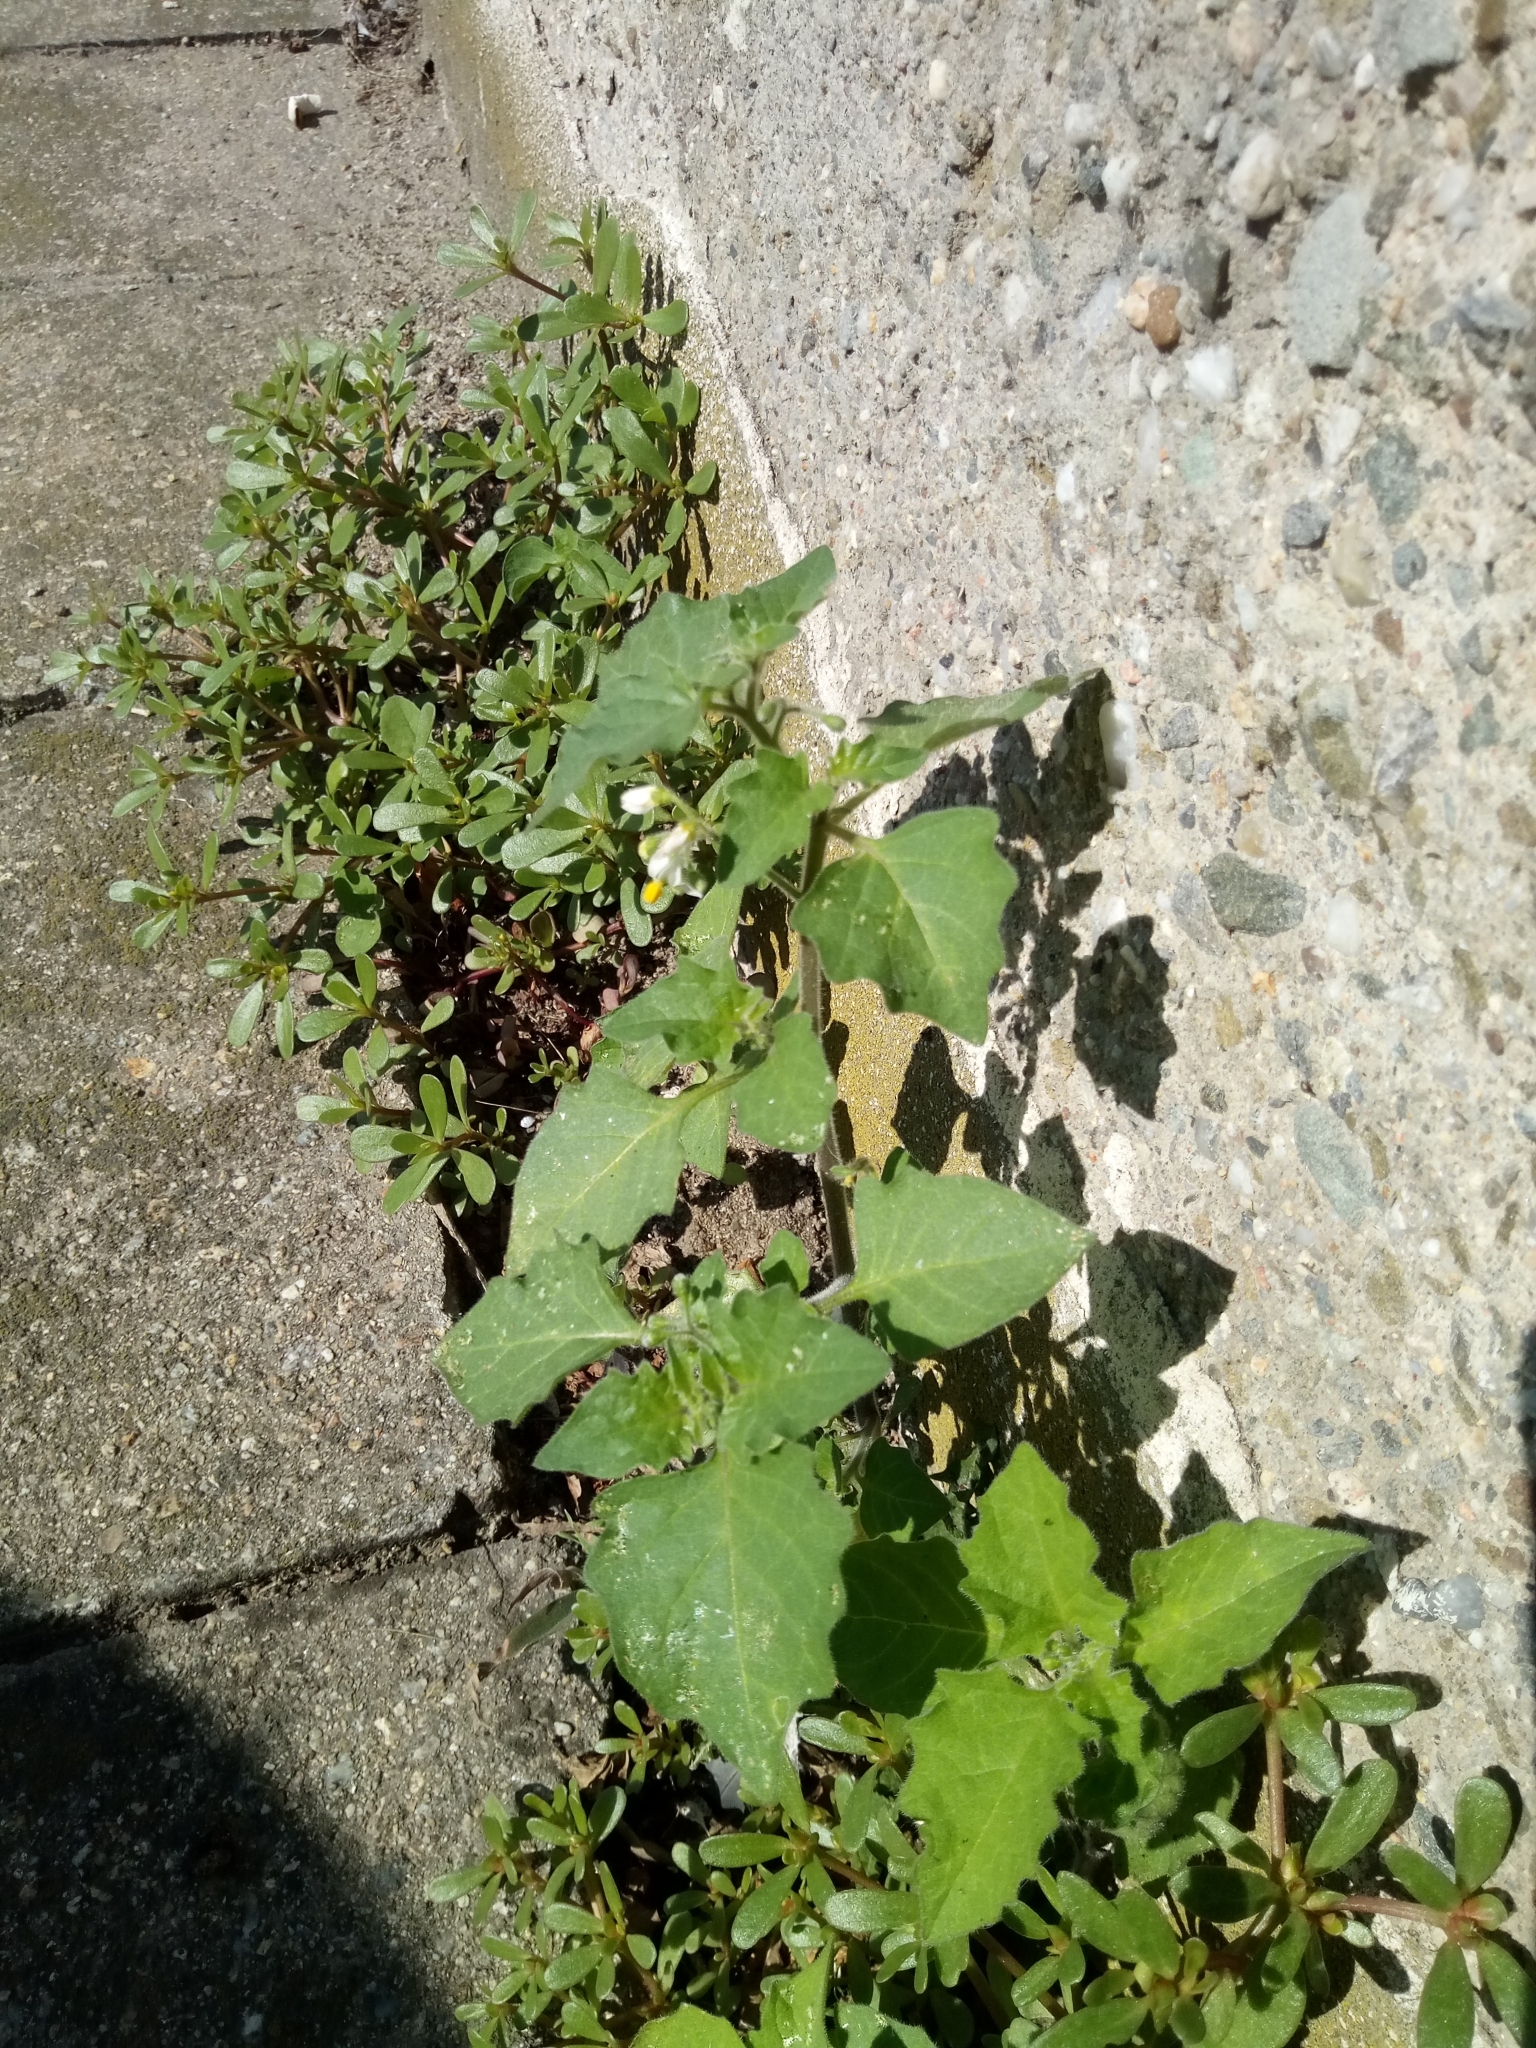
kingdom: Plantae
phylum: Tracheophyta
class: Magnoliopsida
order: Solanales
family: Solanaceae
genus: Solanum
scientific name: Solanum nigrum
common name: Black nightshade
